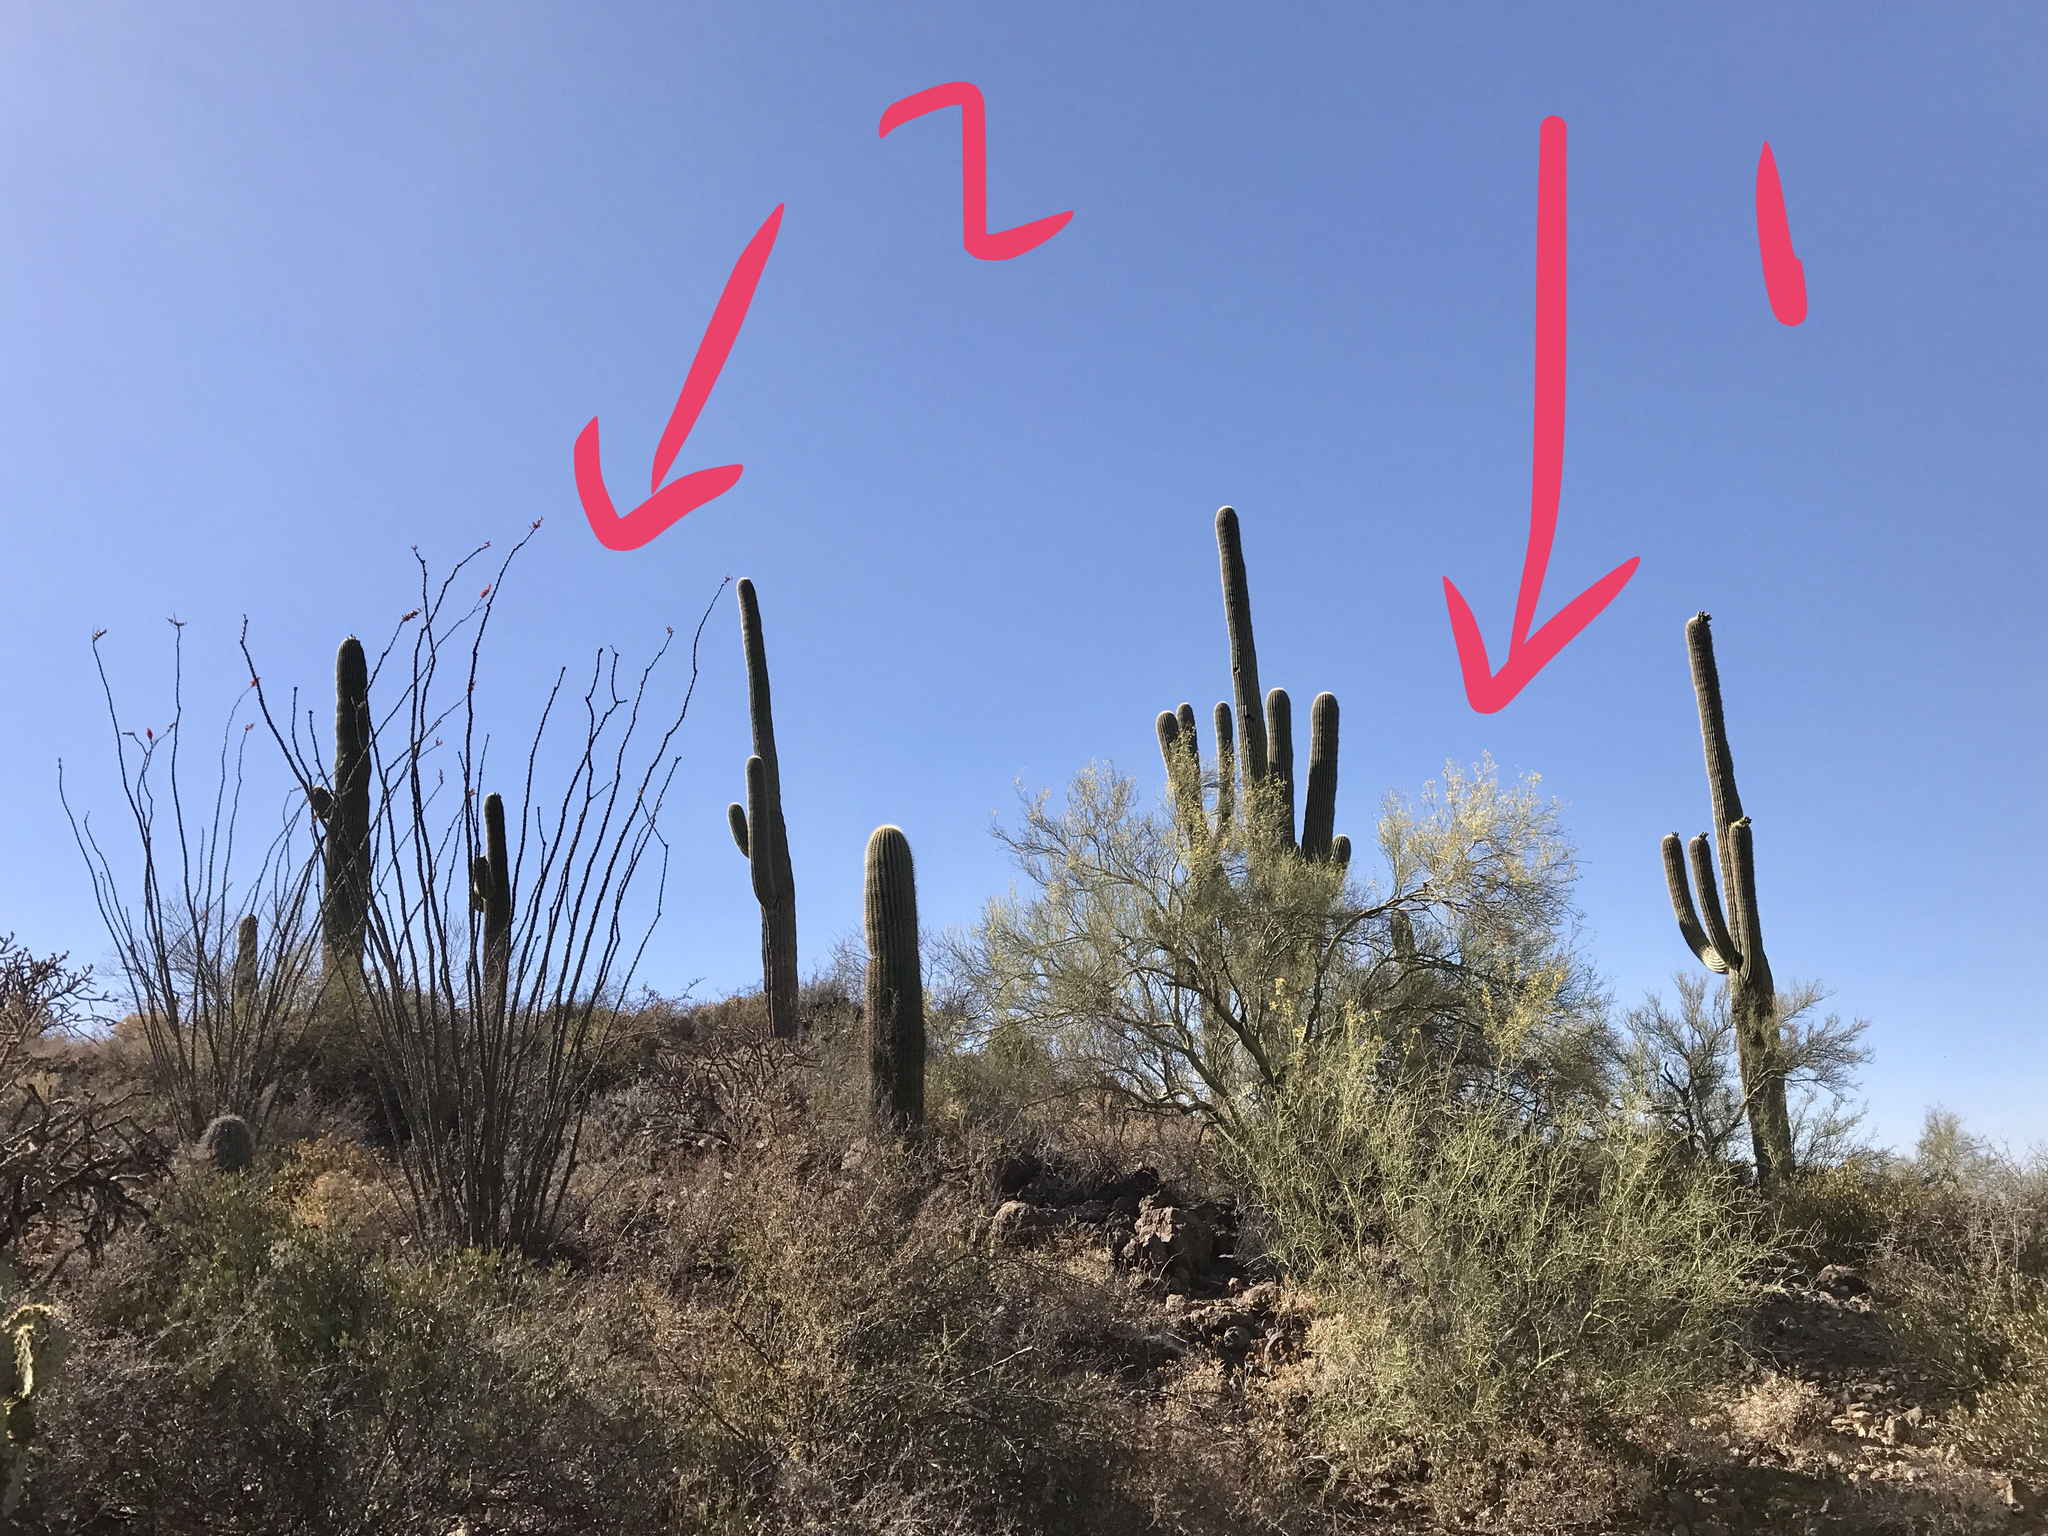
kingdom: Plantae
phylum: Tracheophyta
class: Magnoliopsida
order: Caryophyllales
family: Cactaceae
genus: Carnegiea
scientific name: Carnegiea gigantea
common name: Saguaro
